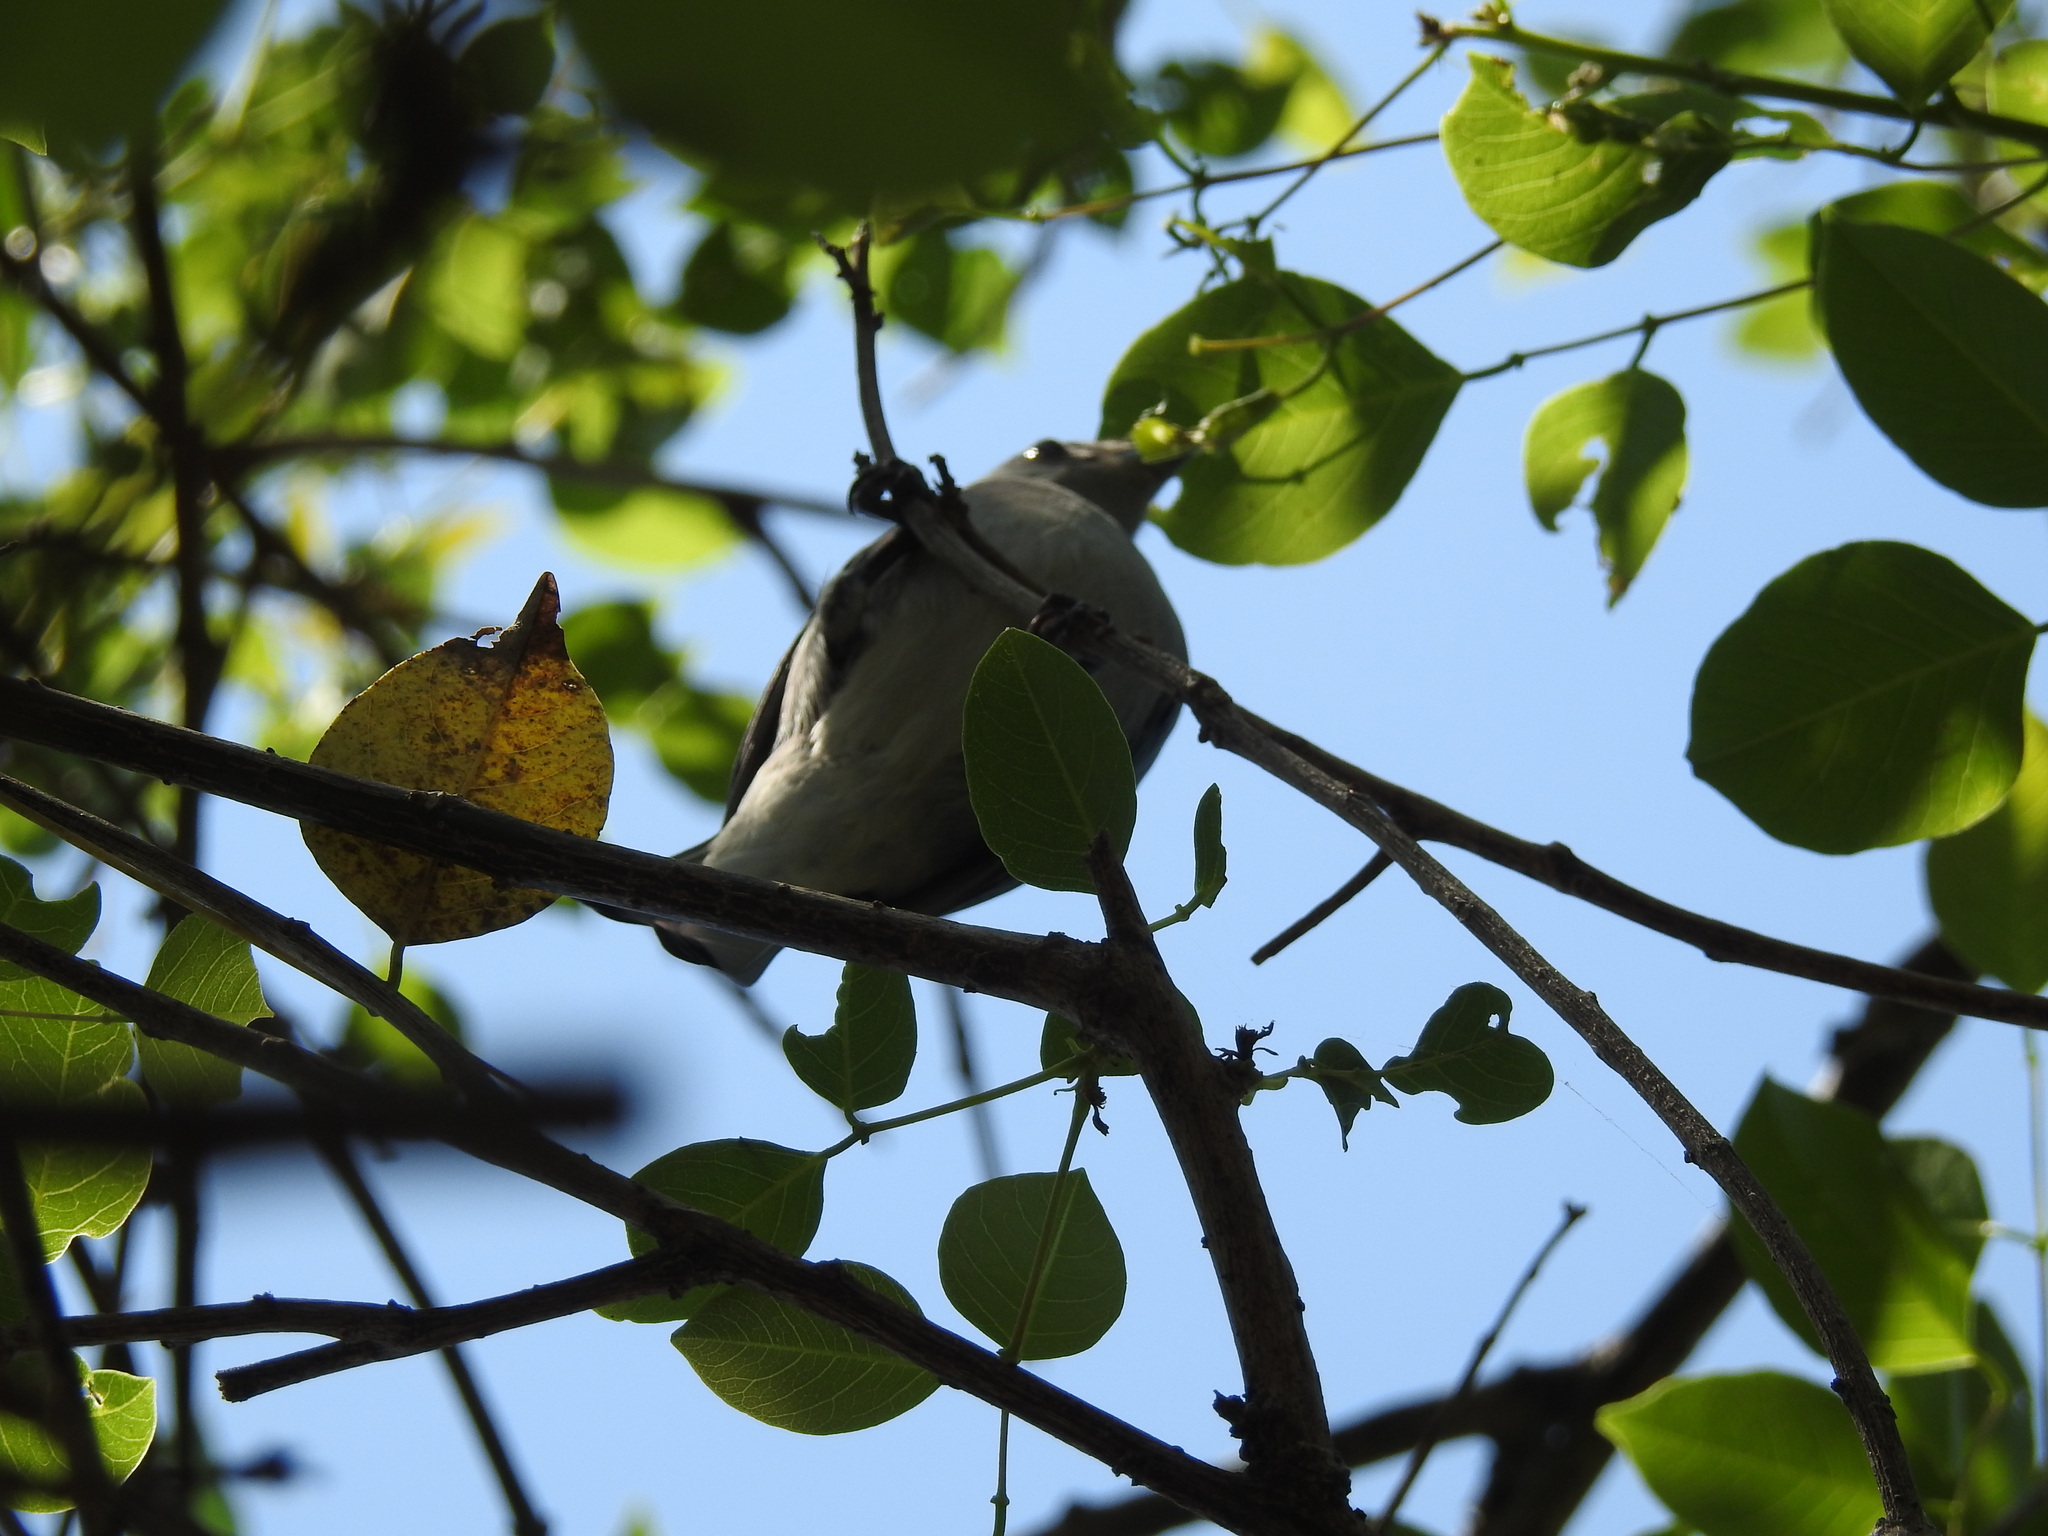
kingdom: Animalia
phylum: Chordata
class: Aves
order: Passeriformes
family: Thraupidae
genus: Thraupis
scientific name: Thraupis sayaca
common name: Sayaca tanager
